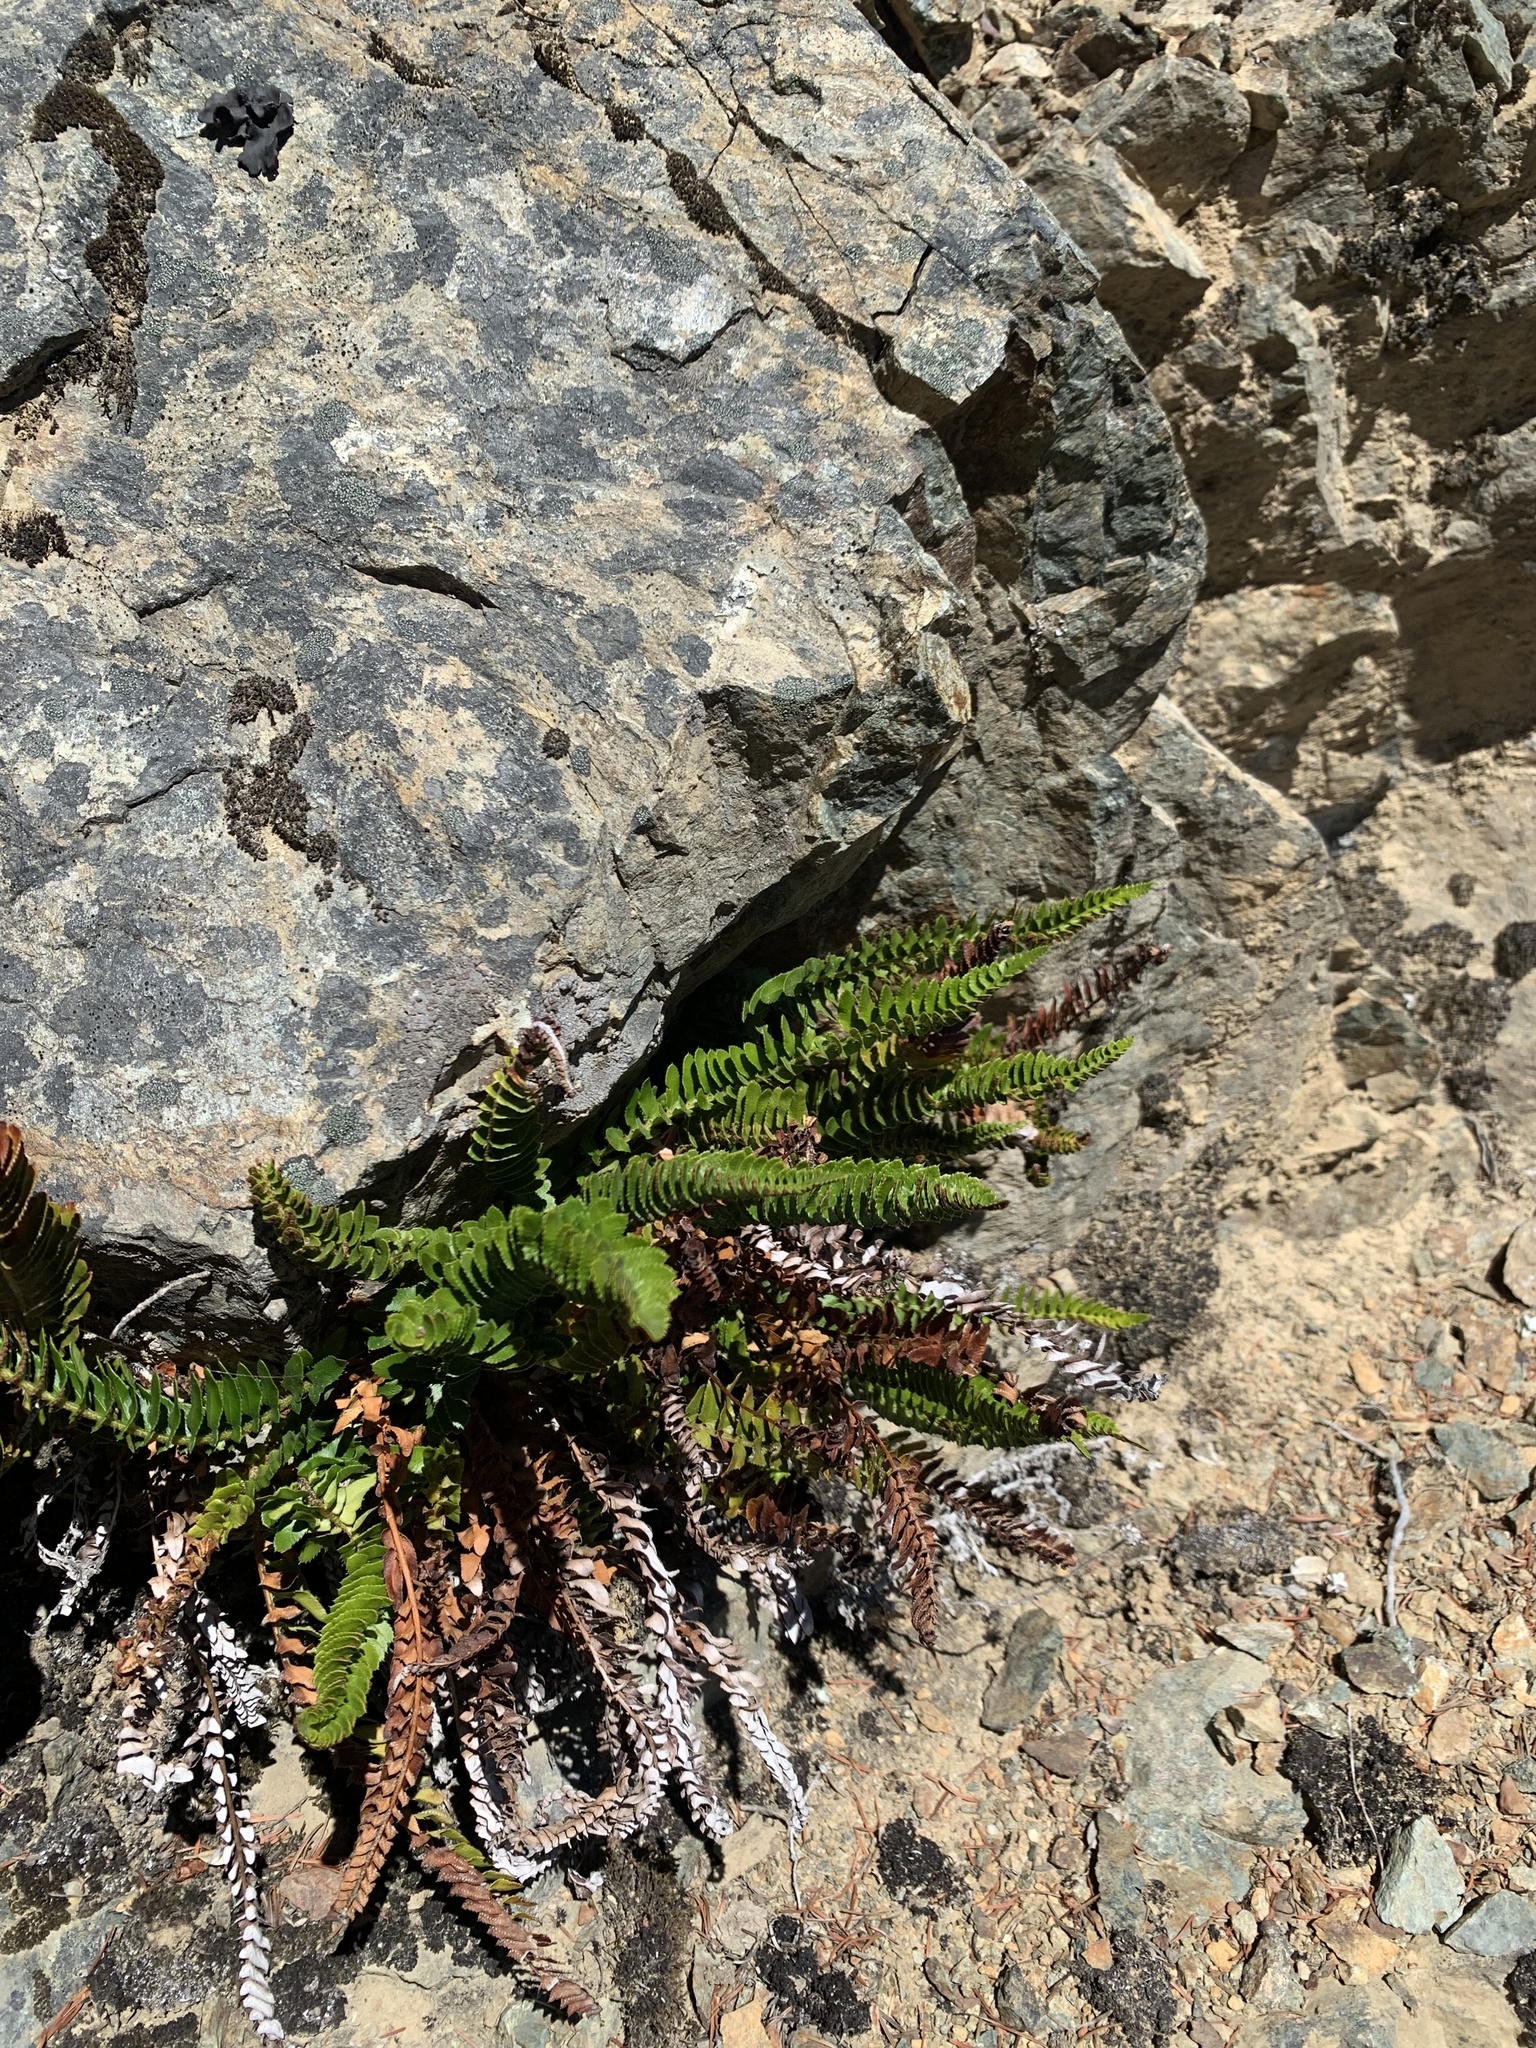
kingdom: Plantae
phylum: Tracheophyta
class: Polypodiopsida
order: Polypodiales
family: Dryopteridaceae
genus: Polystichum
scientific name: Polystichum imbricans
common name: Dwarf western sword fern
